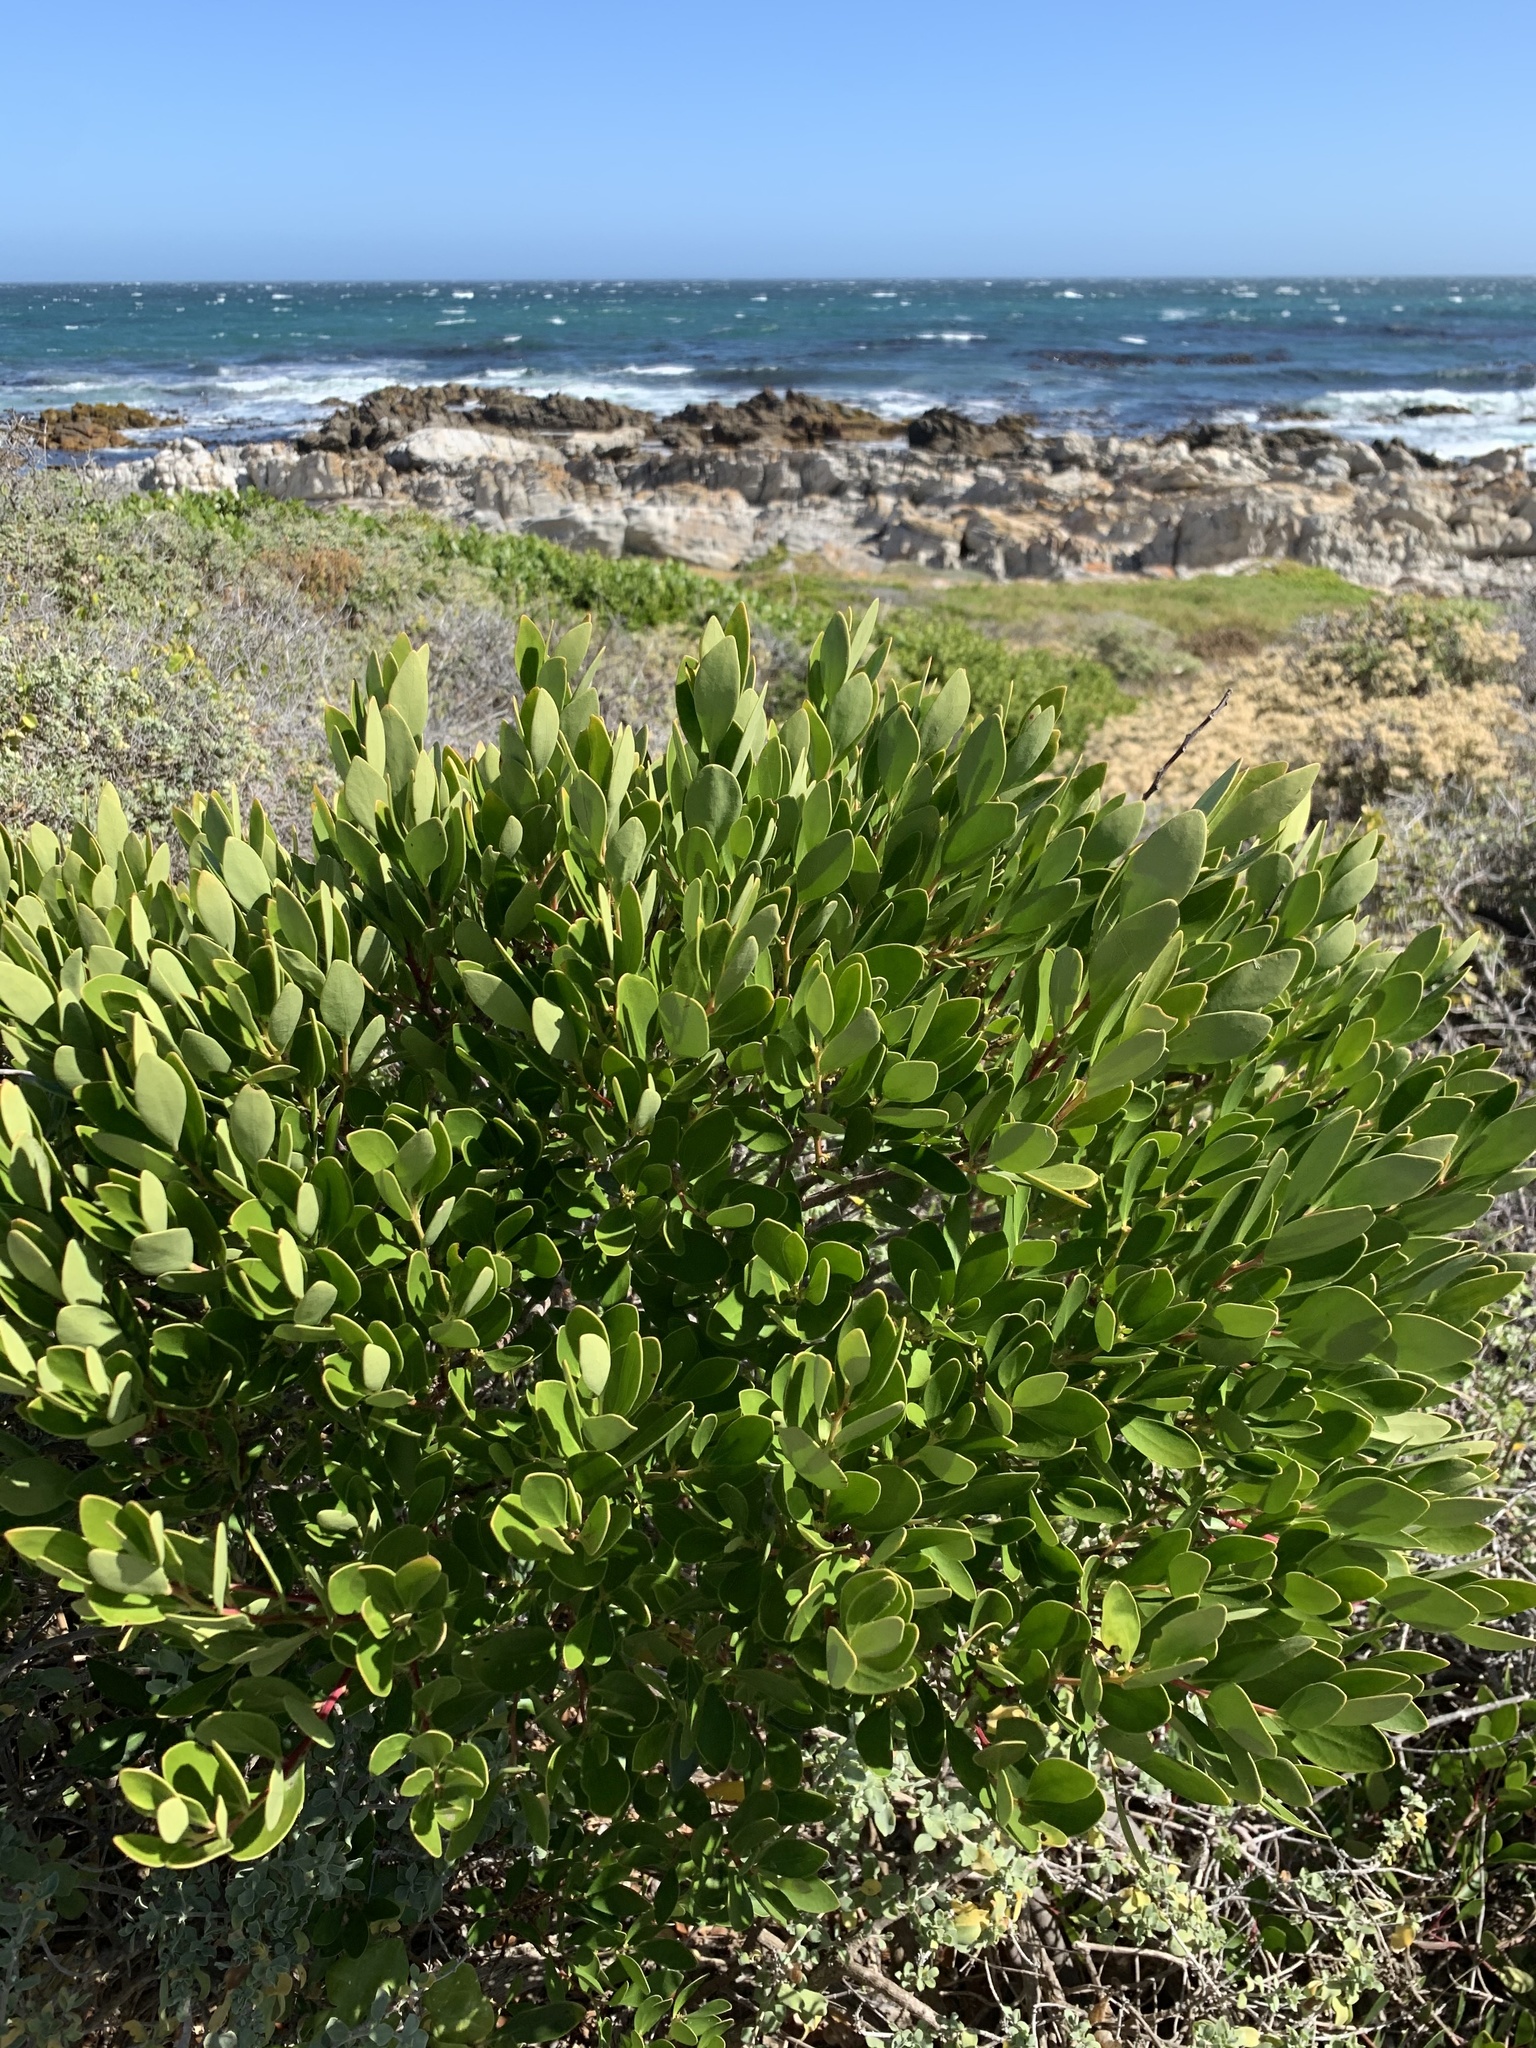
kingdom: Plantae
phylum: Tracheophyta
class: Magnoliopsida
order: Ericales
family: Ebenaceae
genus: Euclea
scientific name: Euclea racemosa
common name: Dune guarri
